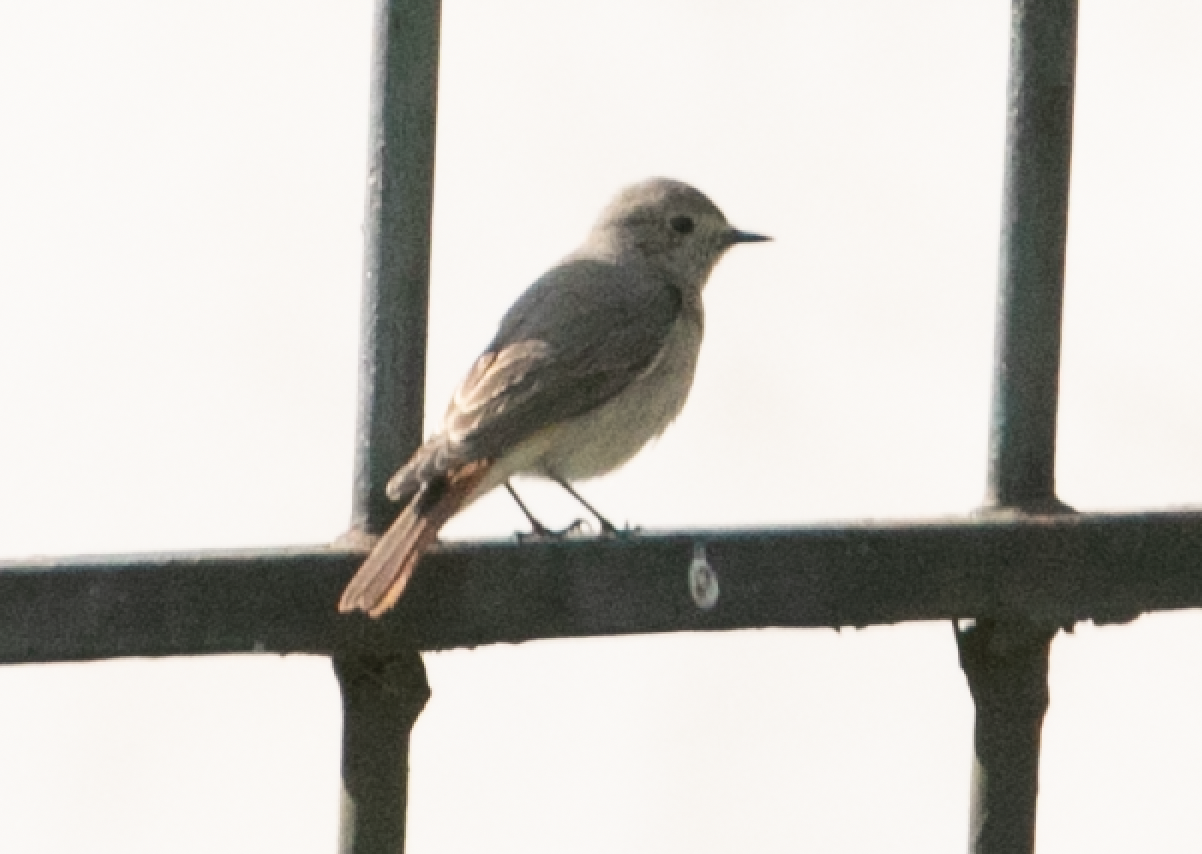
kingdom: Animalia
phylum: Chordata
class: Aves
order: Passeriformes
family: Muscicapidae
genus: Phoenicurus
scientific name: Phoenicurus phoenicurus
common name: Common redstart
